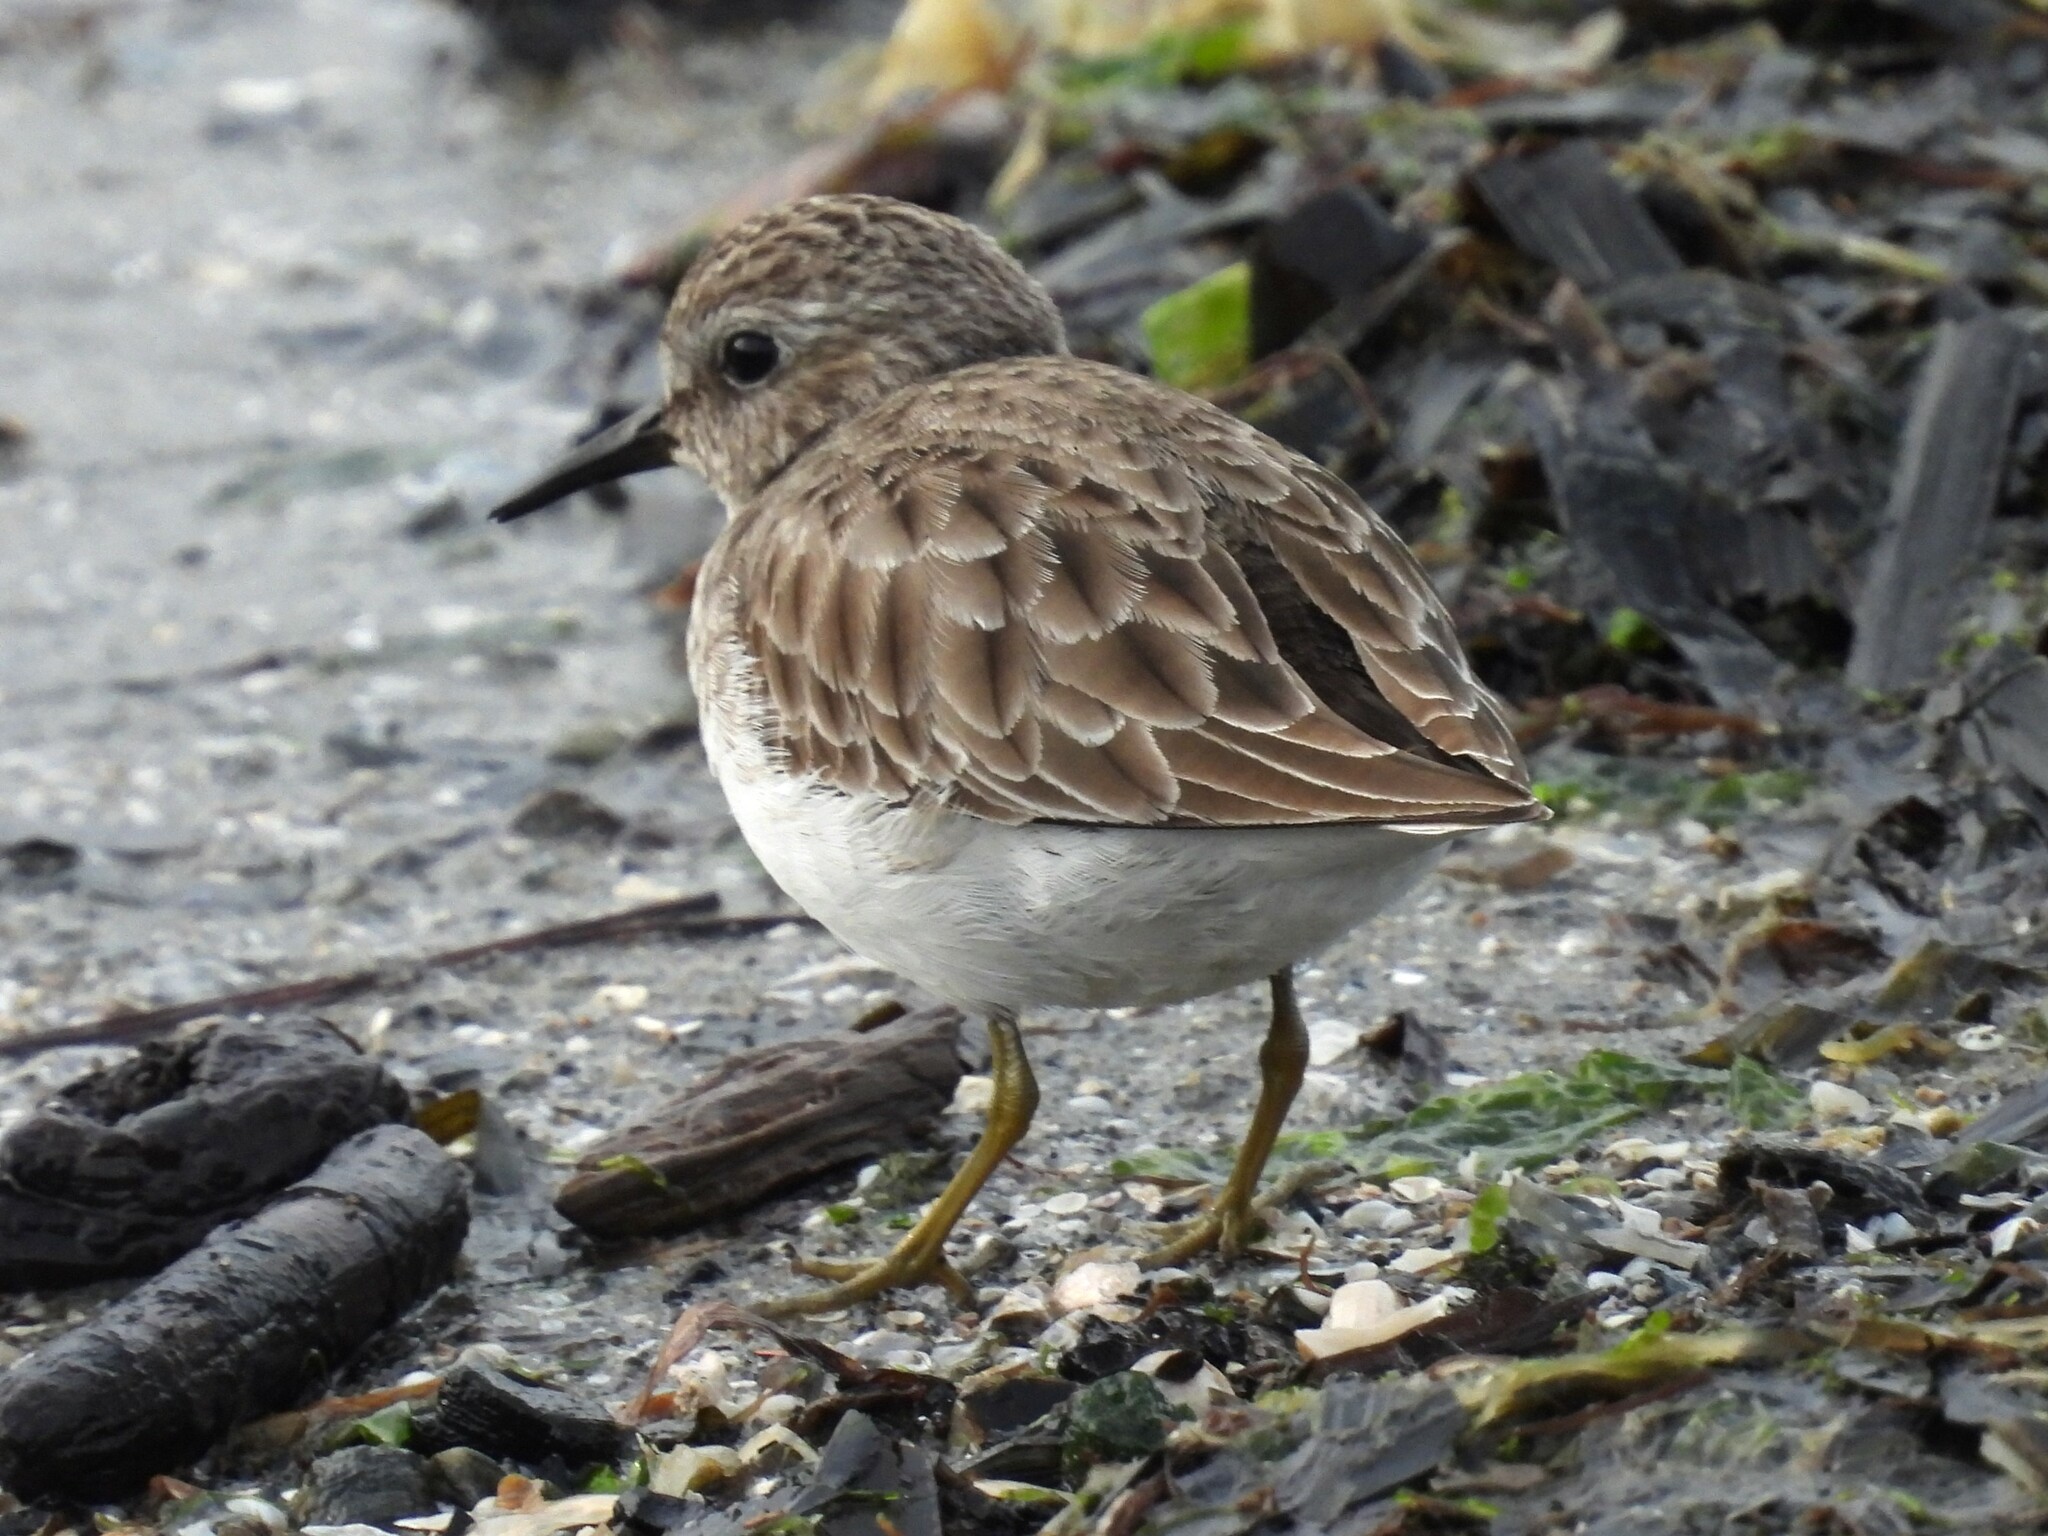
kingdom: Animalia
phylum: Chordata
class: Aves
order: Charadriiformes
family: Scolopacidae
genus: Calidris
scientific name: Calidris minutilla
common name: Least sandpiper
